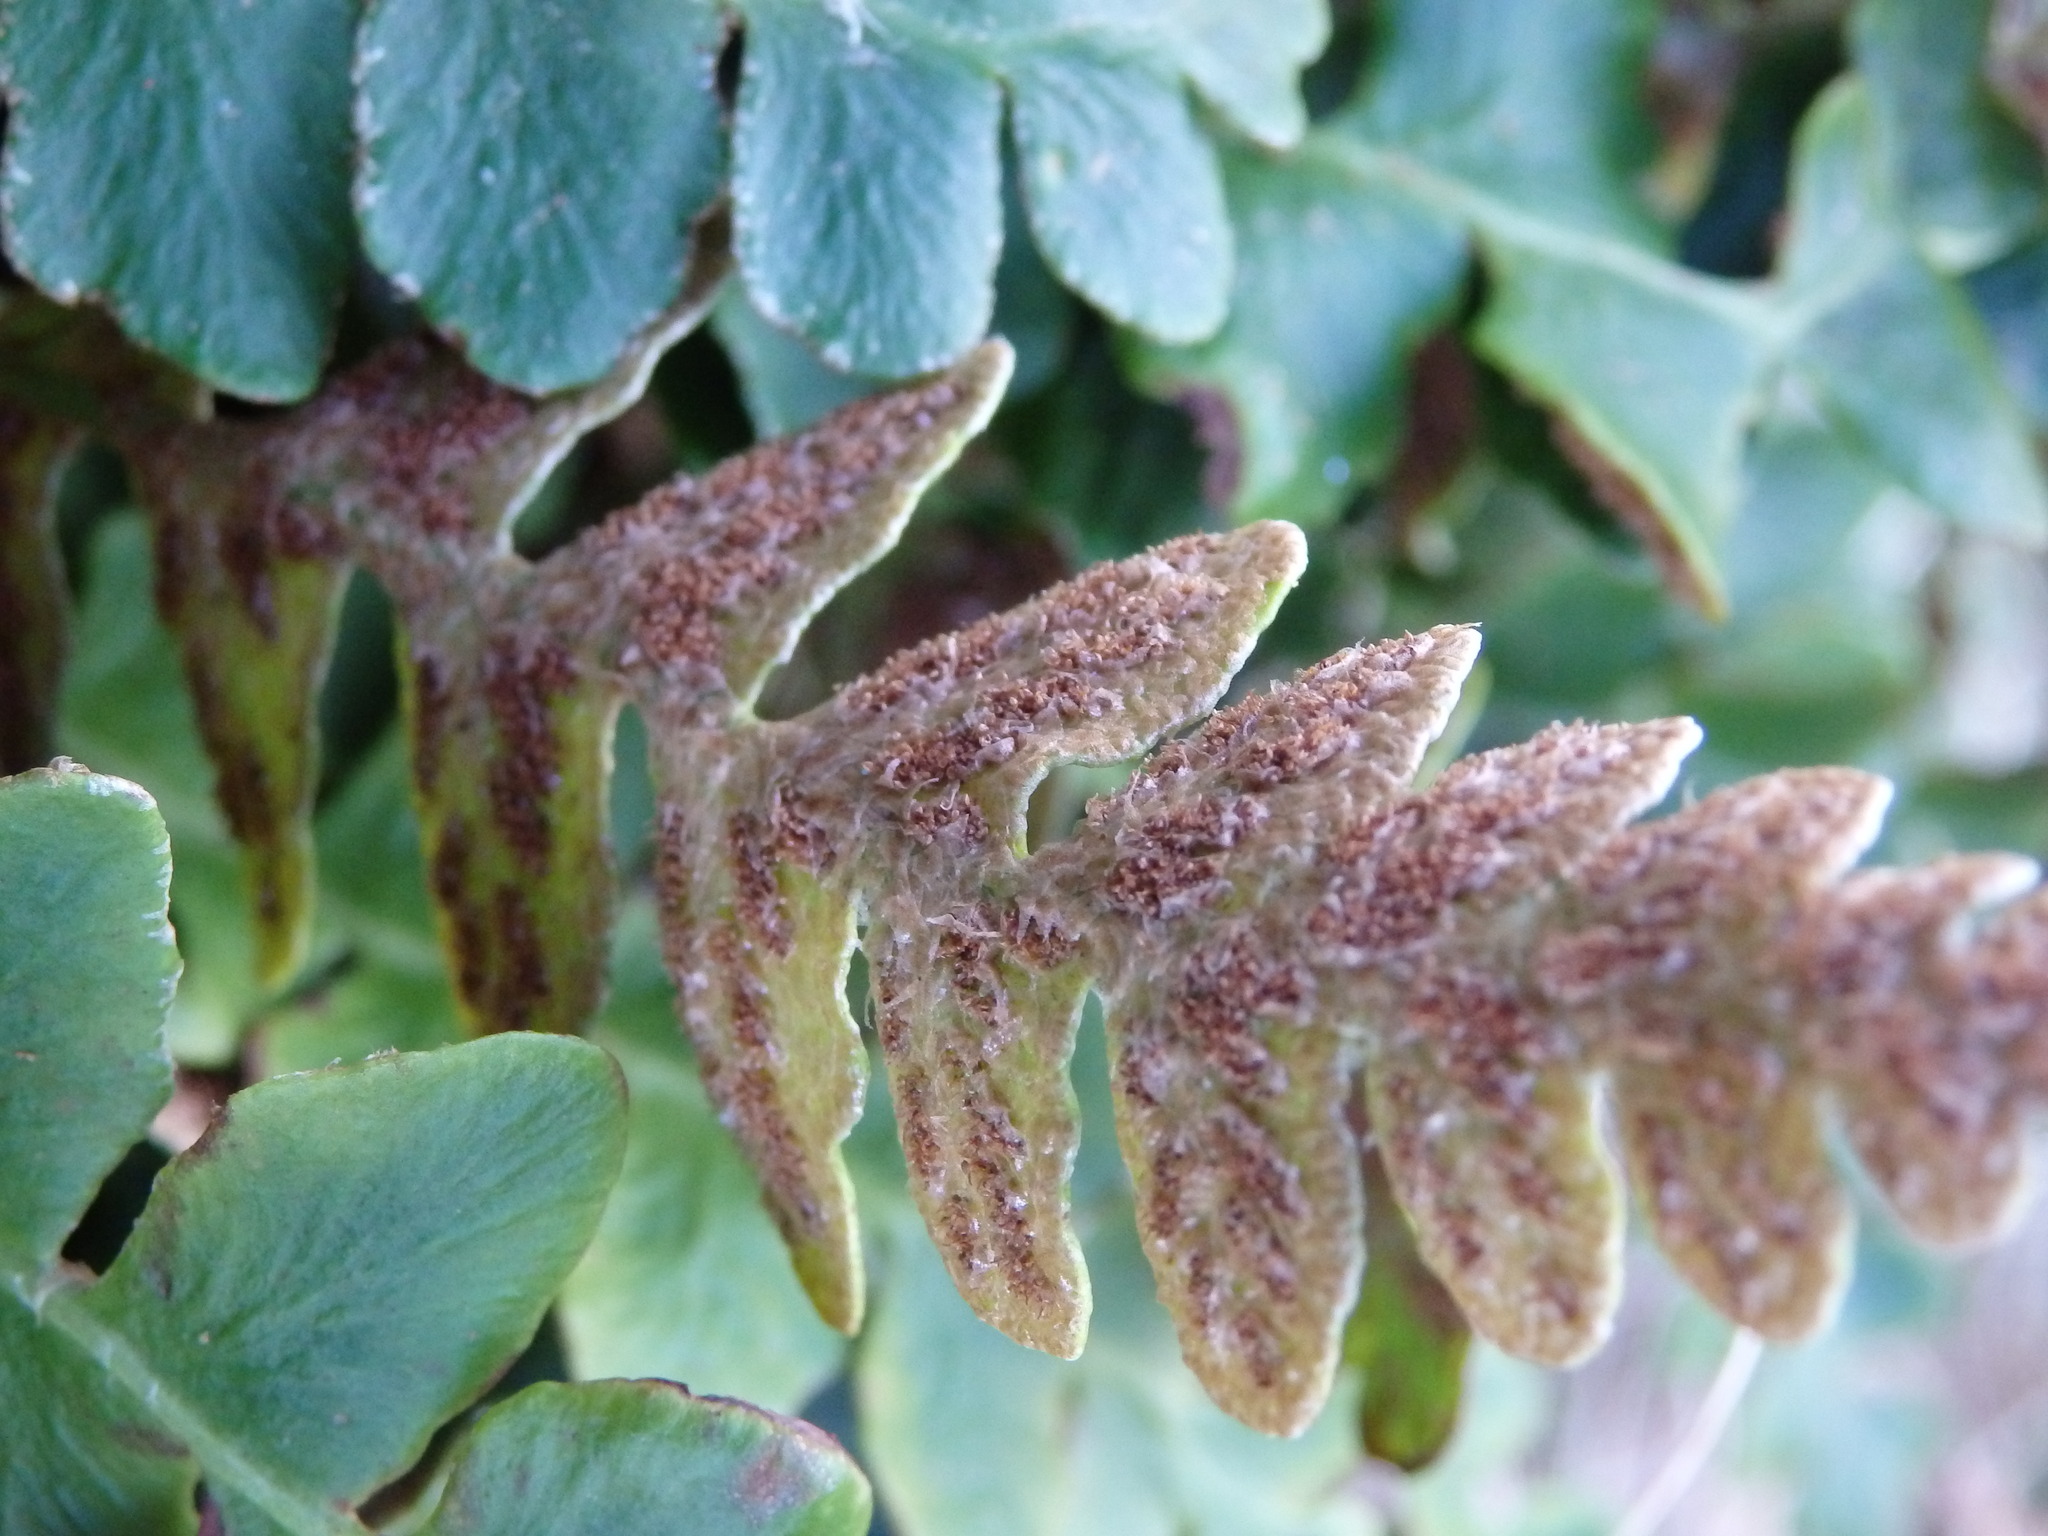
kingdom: Plantae
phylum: Tracheophyta
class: Polypodiopsida
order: Polypodiales
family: Aspleniaceae
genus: Asplenium
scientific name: Asplenium ceterach
